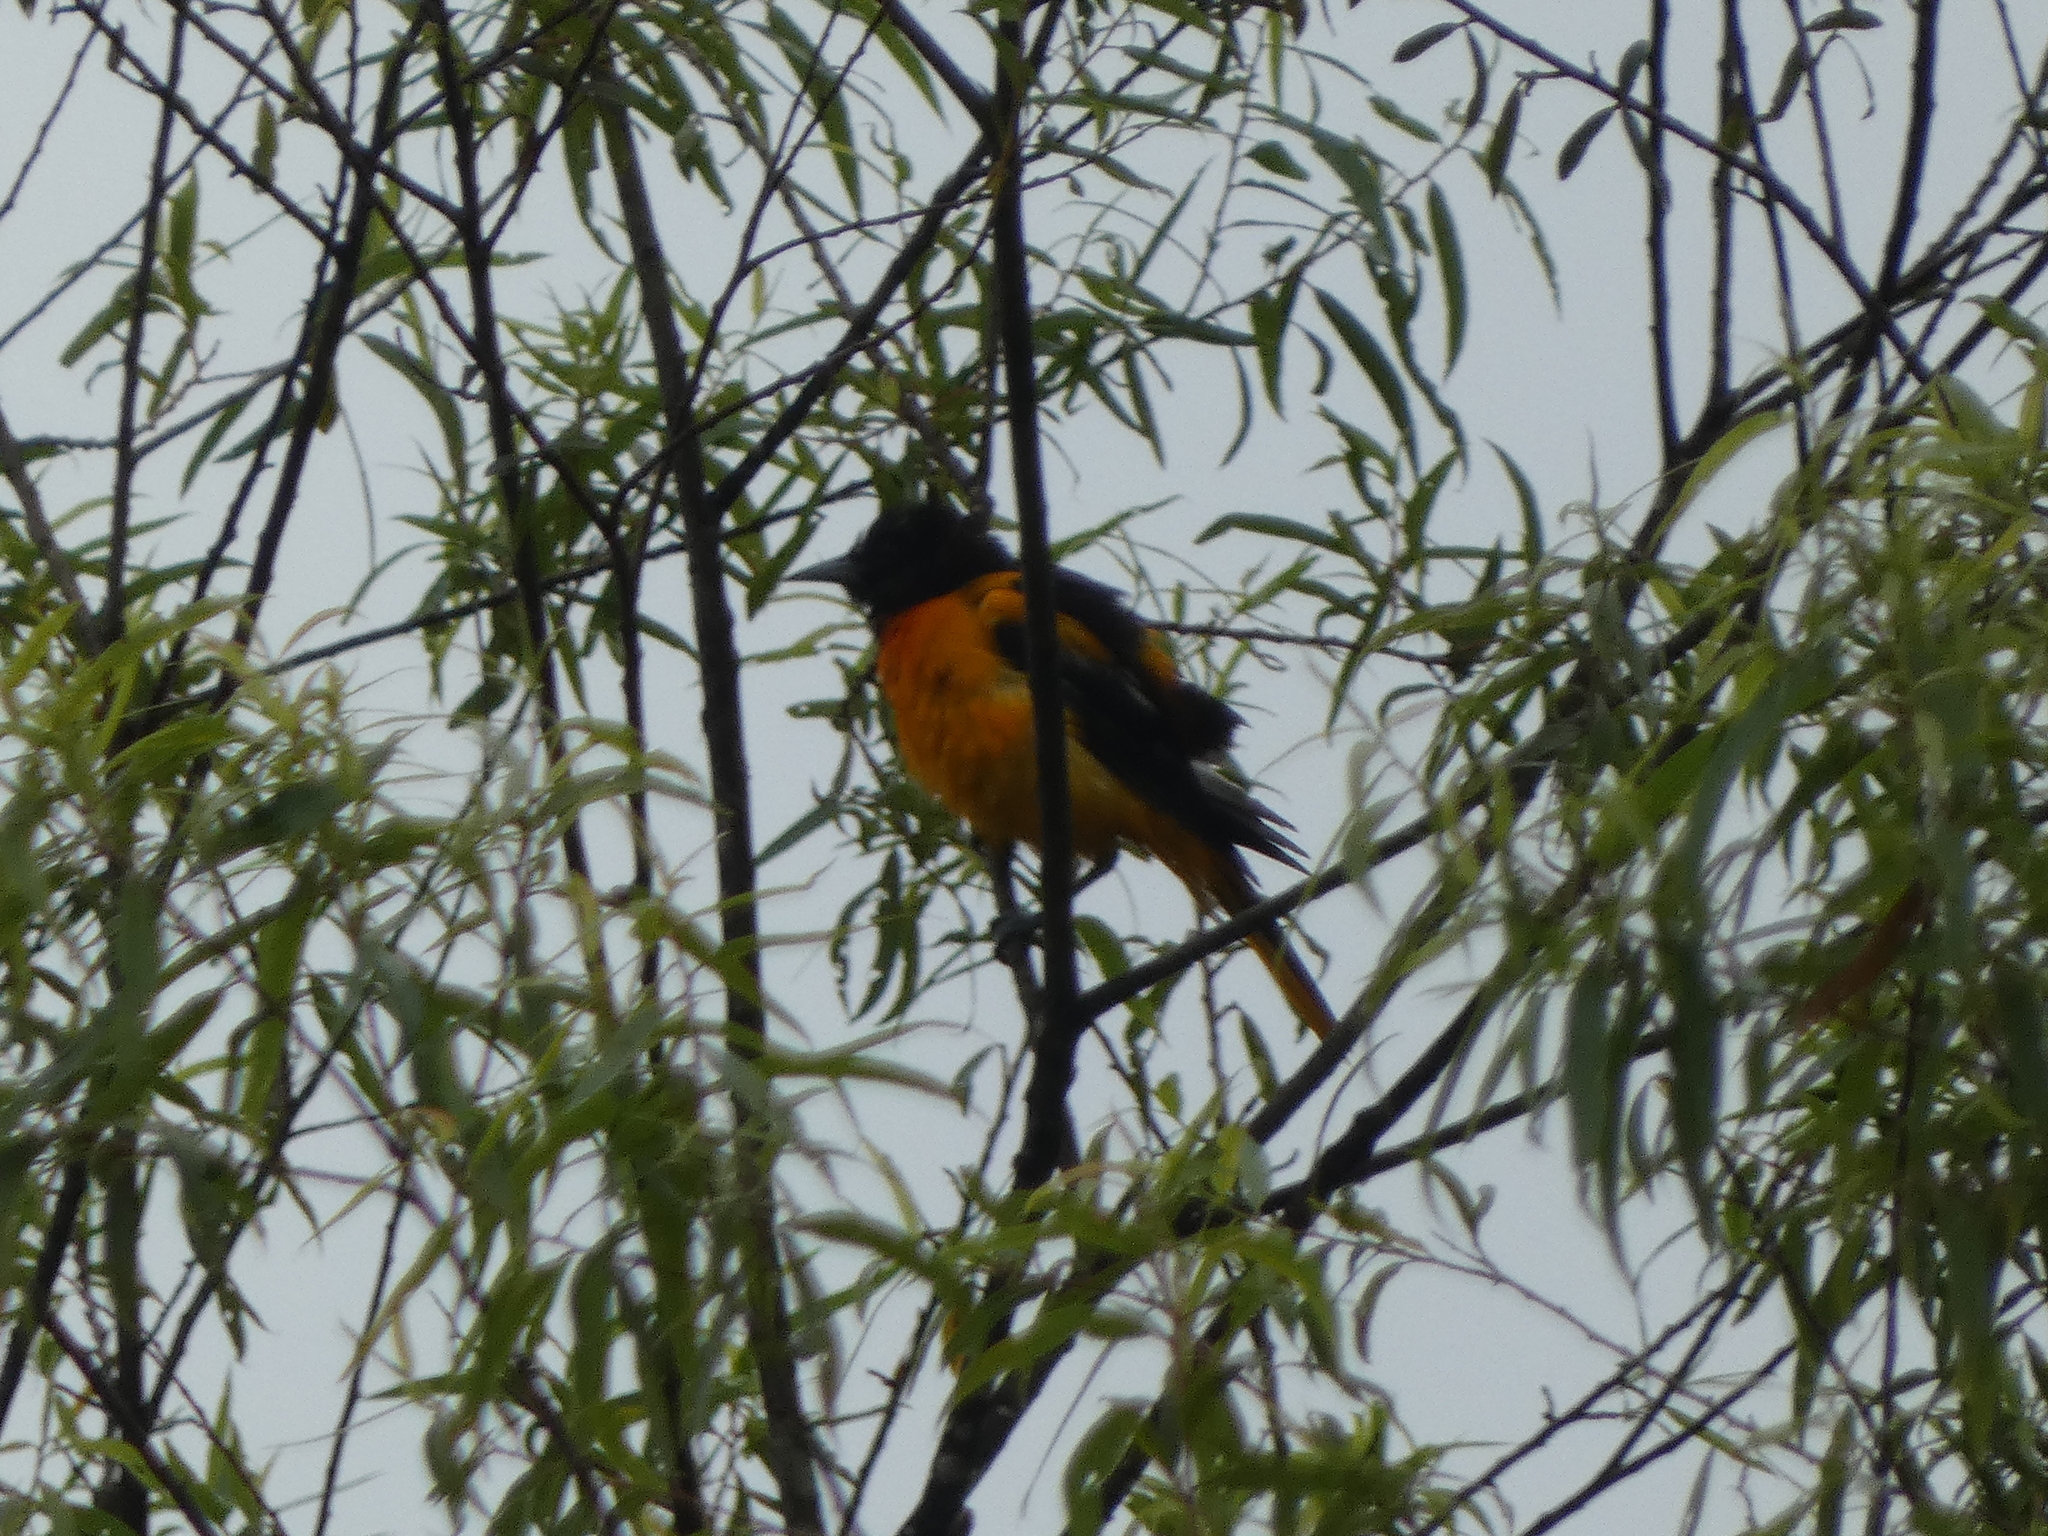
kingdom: Animalia
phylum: Chordata
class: Aves
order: Passeriformes
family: Icteridae
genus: Icterus
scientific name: Icterus galbula
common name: Baltimore oriole
